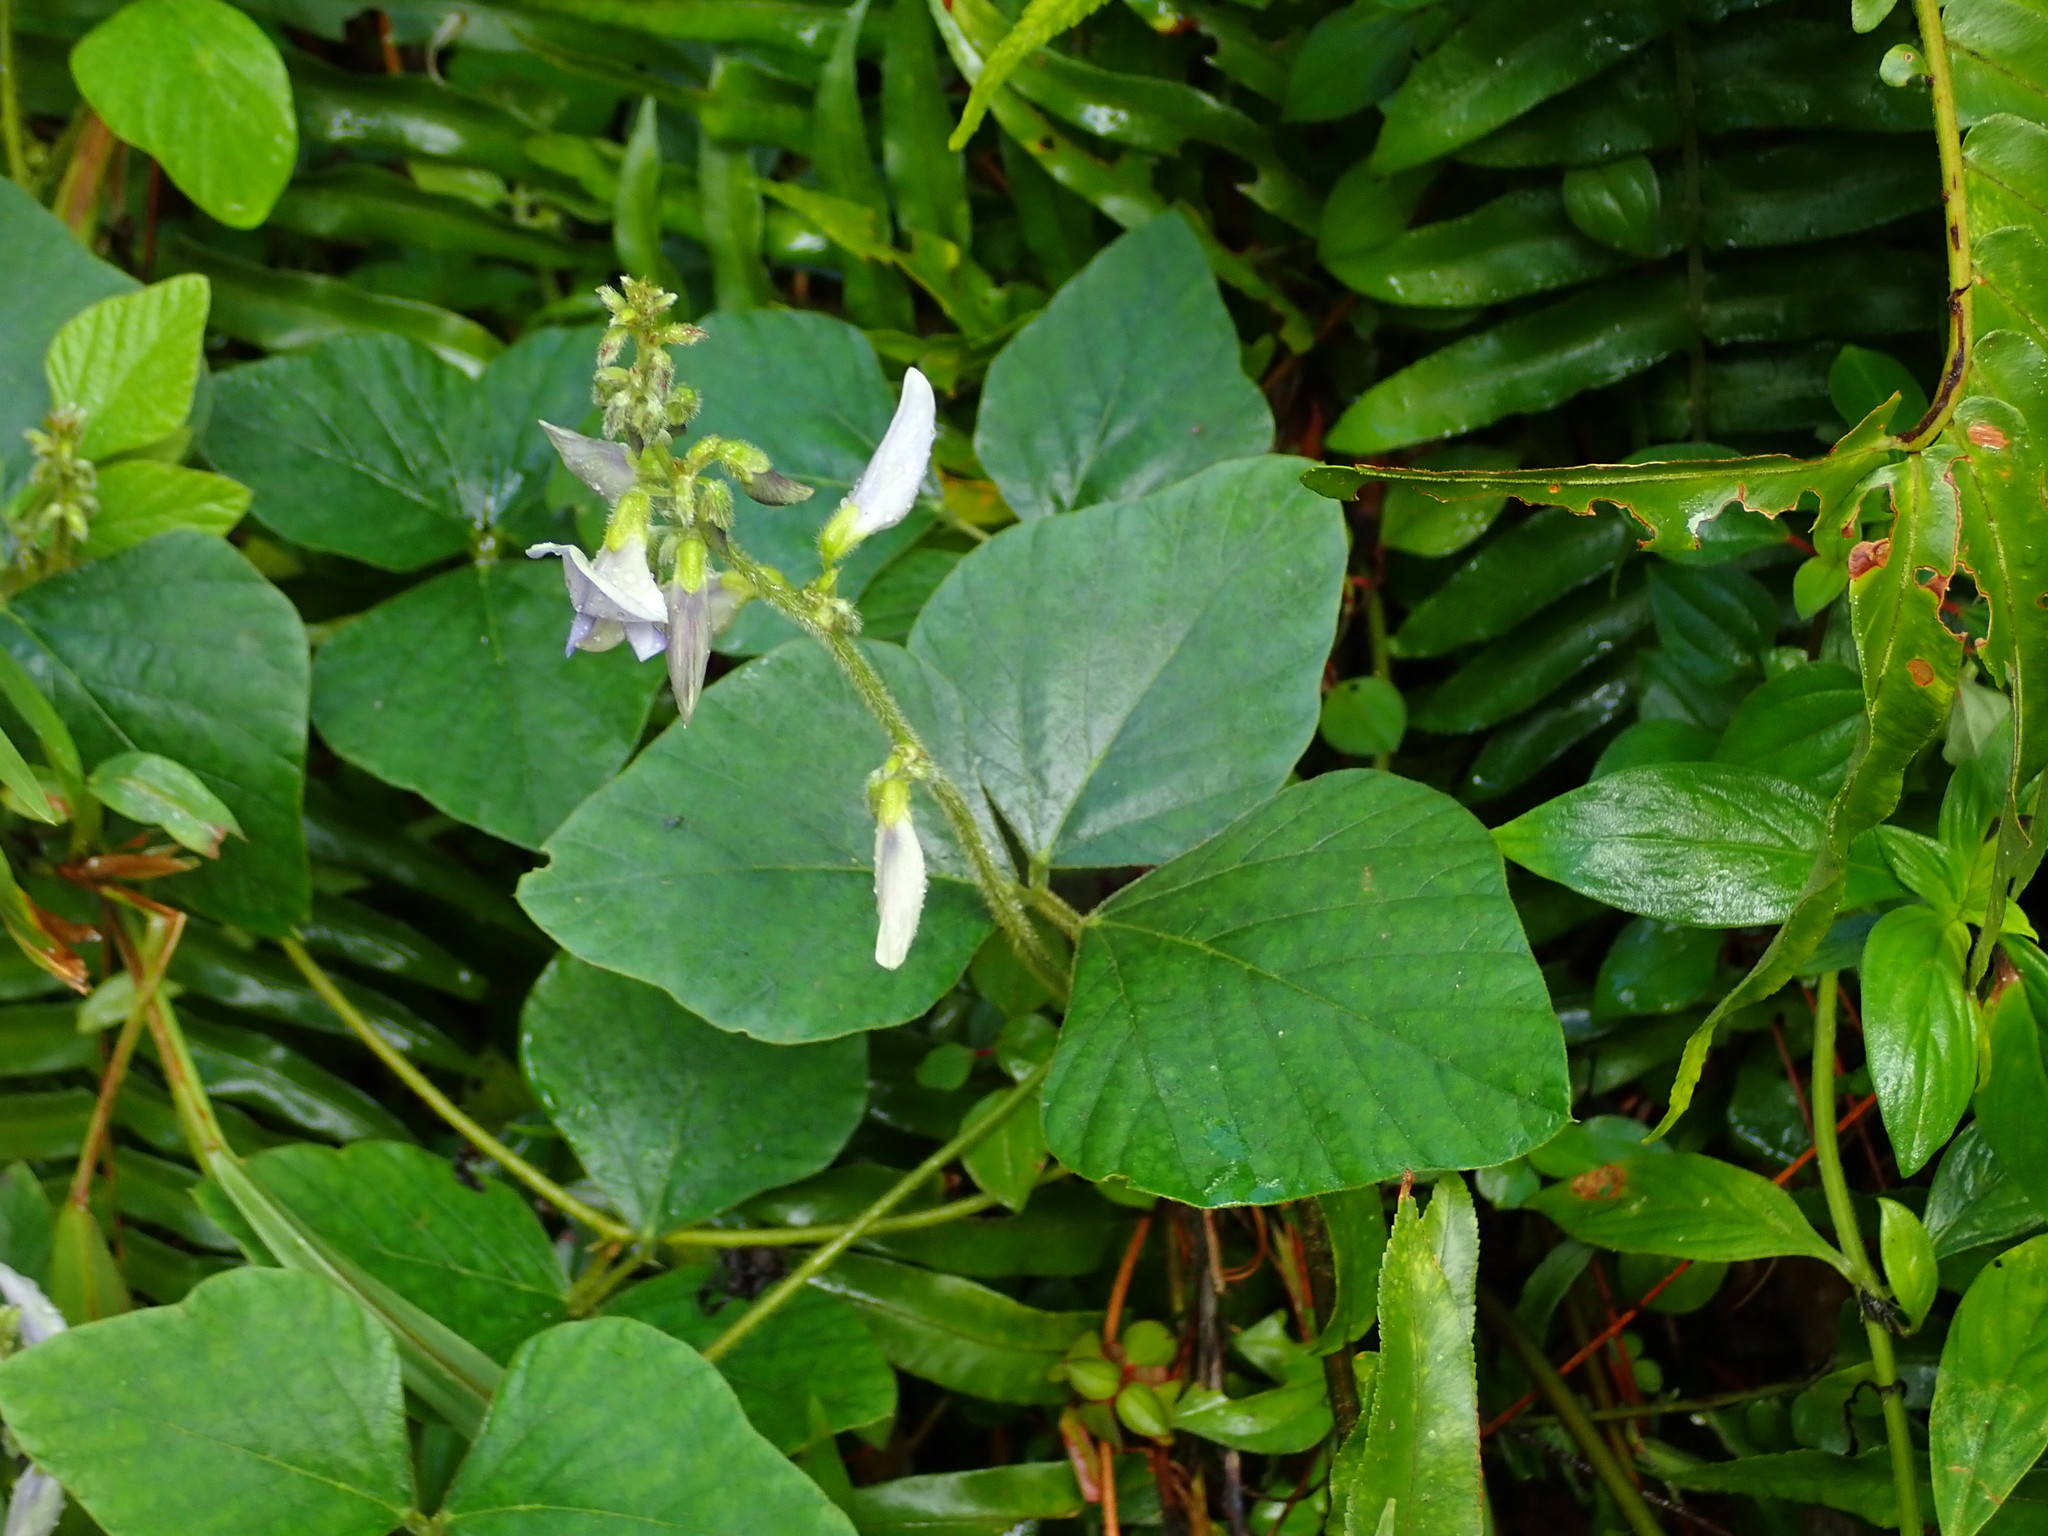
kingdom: Plantae
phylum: Tracheophyta
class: Magnoliopsida
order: Fabales
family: Fabaceae
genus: Neustanthus
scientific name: Neustanthus phaseoloides
